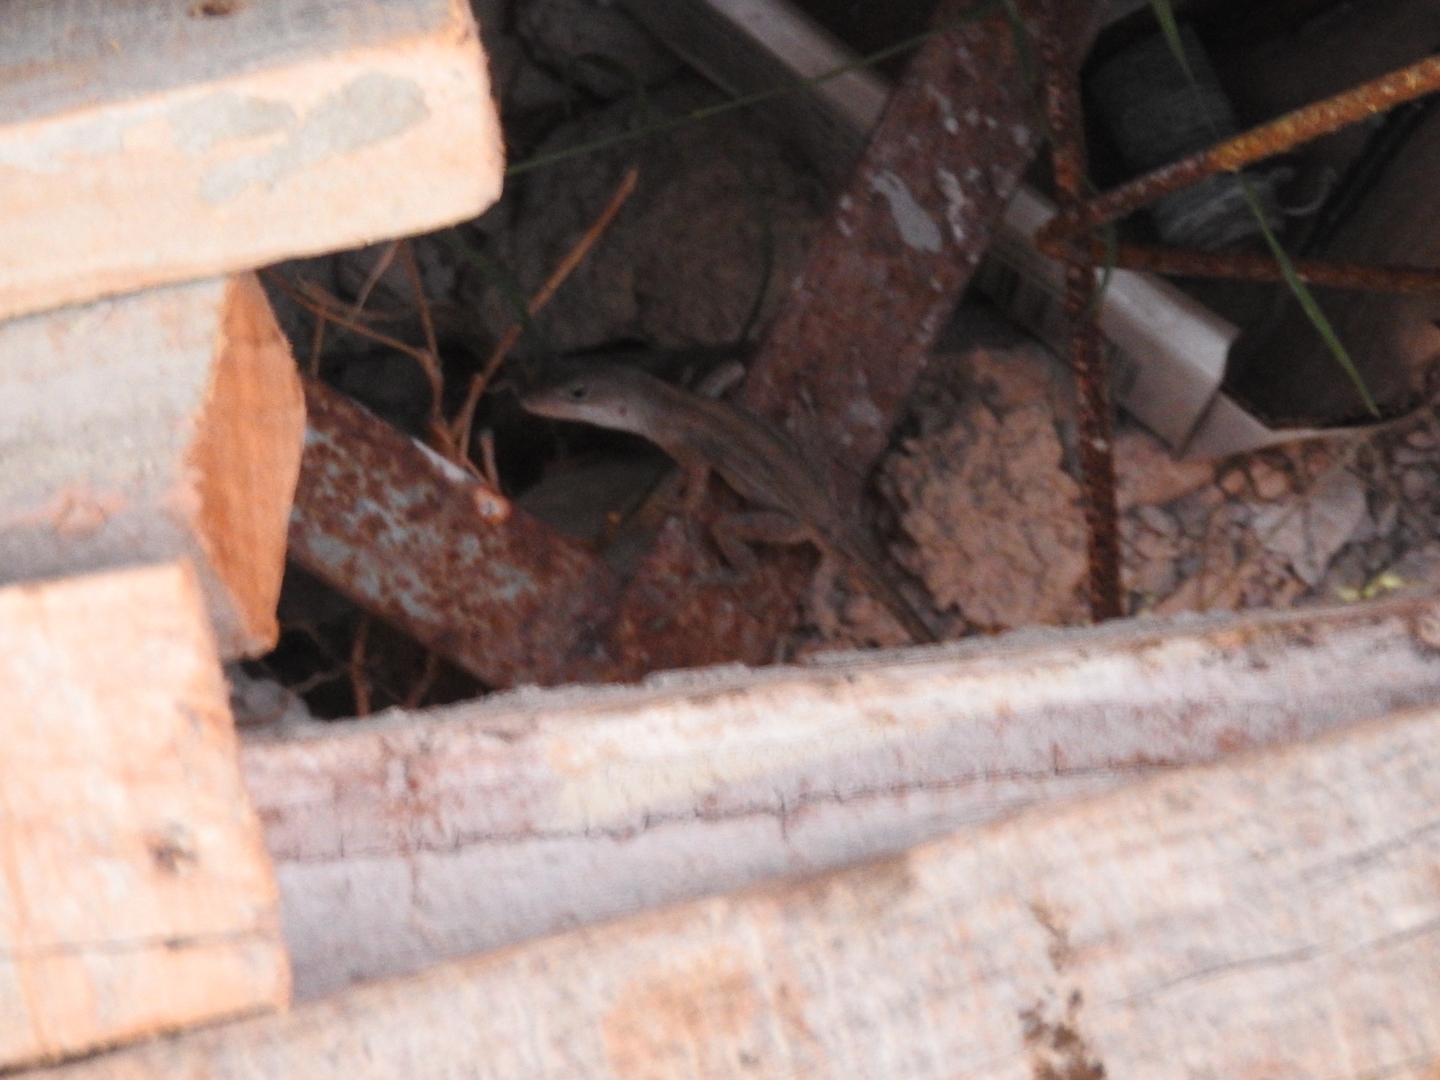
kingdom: Animalia
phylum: Chordata
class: Squamata
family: Dactyloidae
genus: Anolis
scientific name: Anolis sagrei
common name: Brown anole
